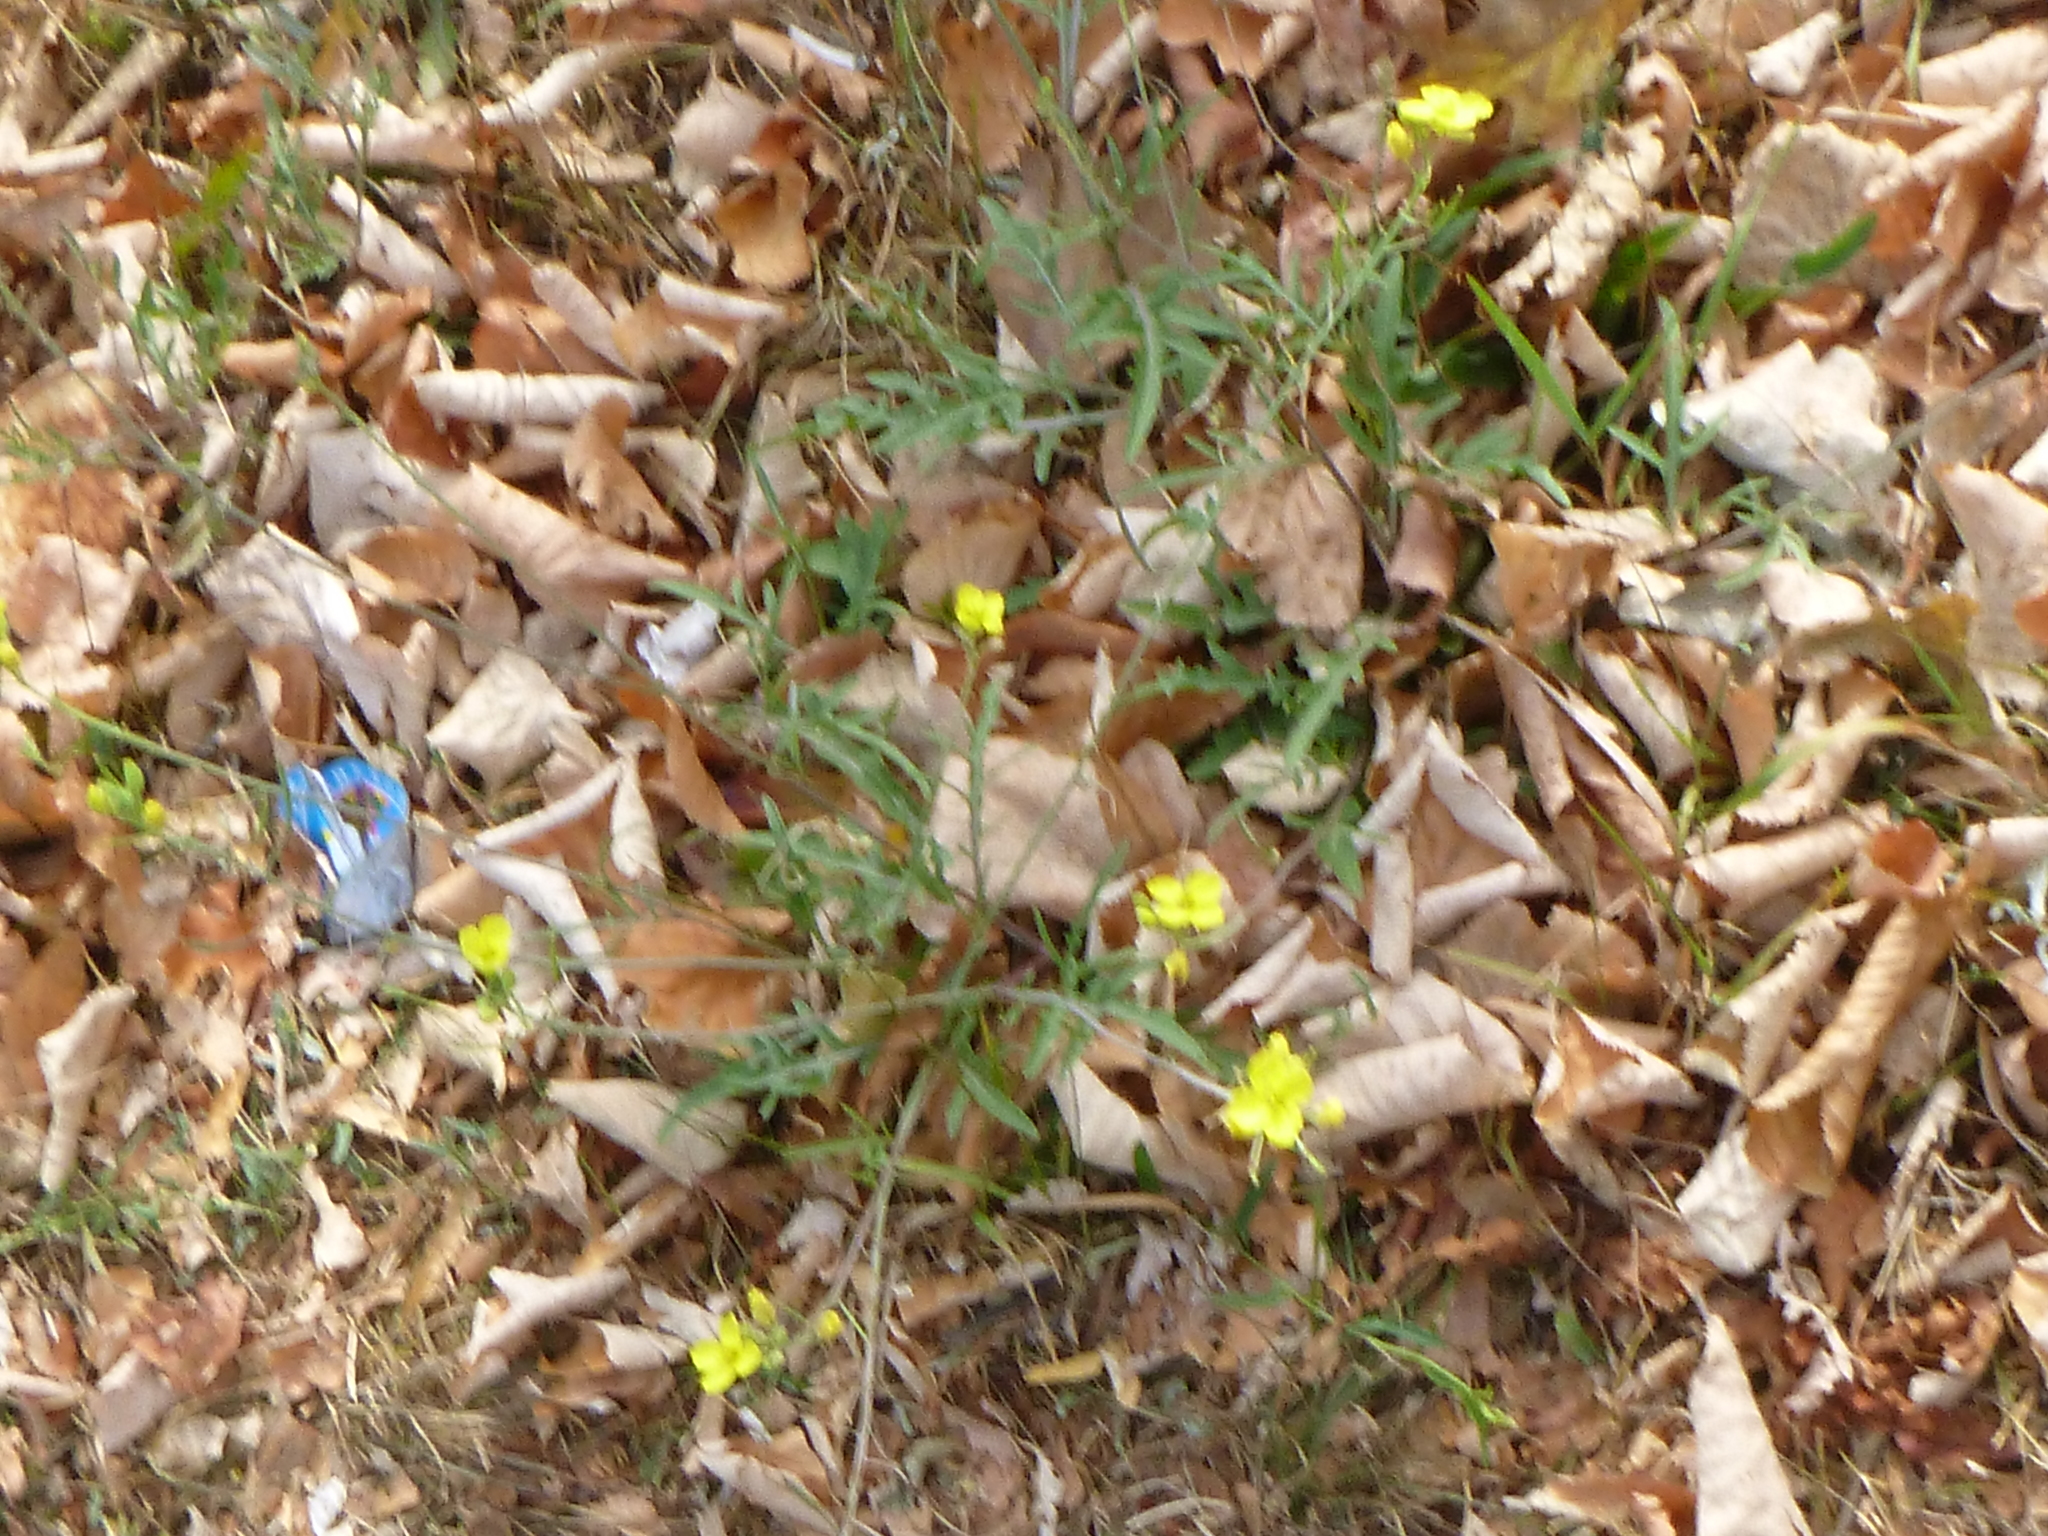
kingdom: Plantae
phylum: Tracheophyta
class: Magnoliopsida
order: Brassicales
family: Brassicaceae
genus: Diplotaxis
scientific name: Diplotaxis tenuifolia
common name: Perennial wall-rocket
